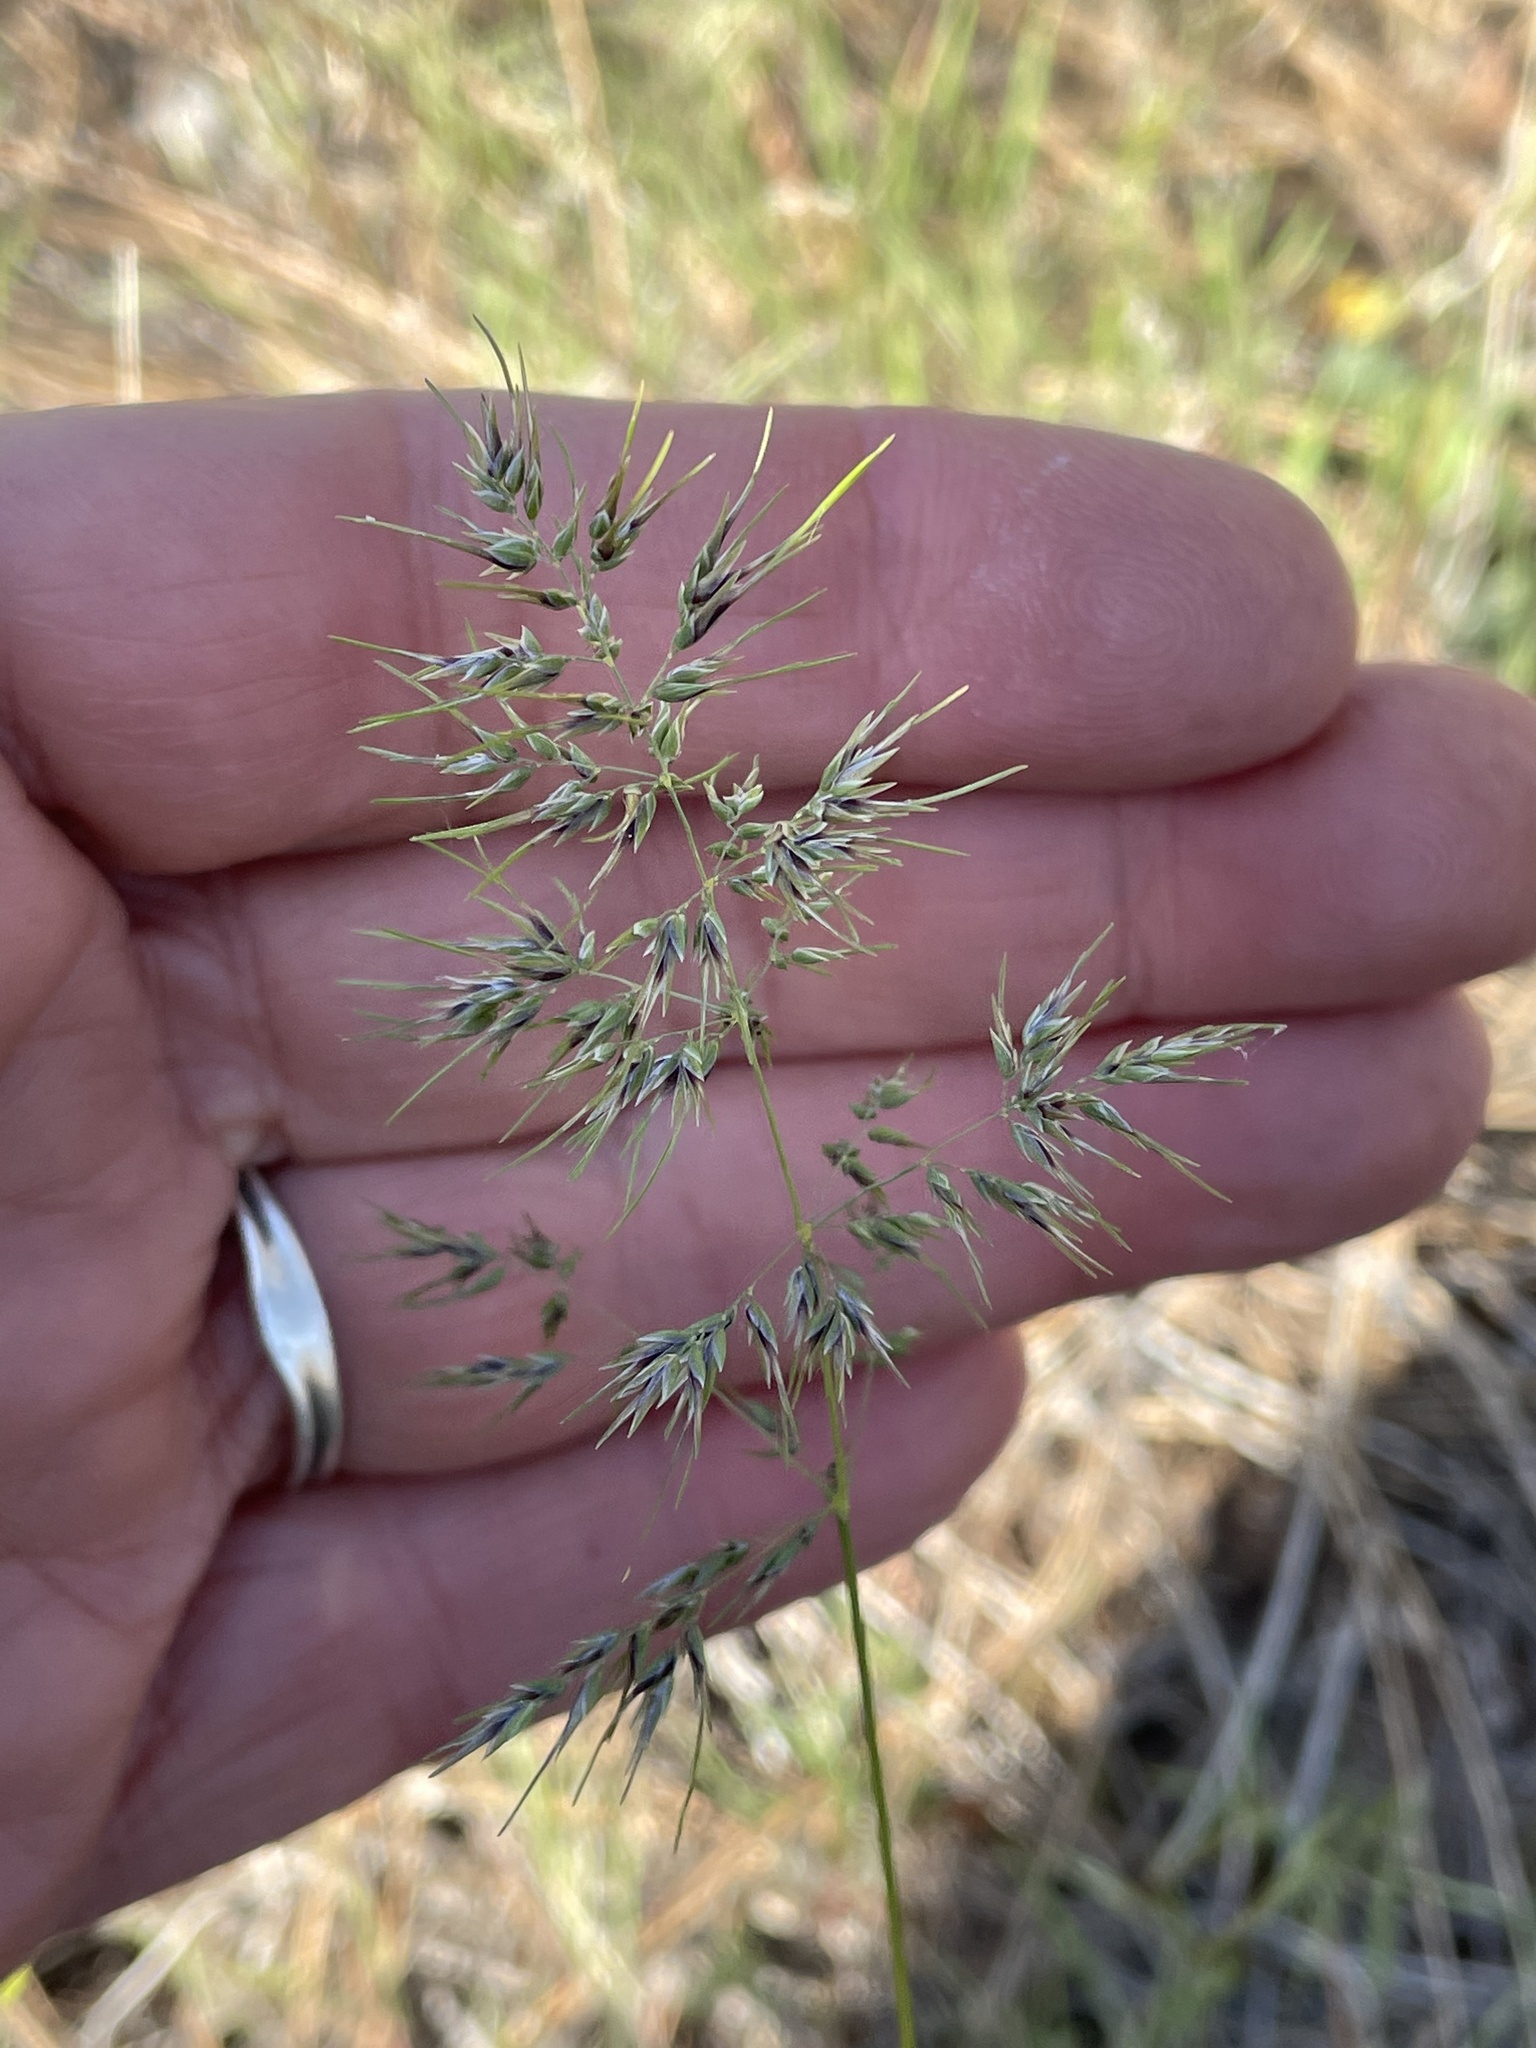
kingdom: Plantae
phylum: Tracheophyta
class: Liliopsida
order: Poales
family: Poaceae
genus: Poa
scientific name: Poa bulbosa
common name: Bulbous bluegrass
